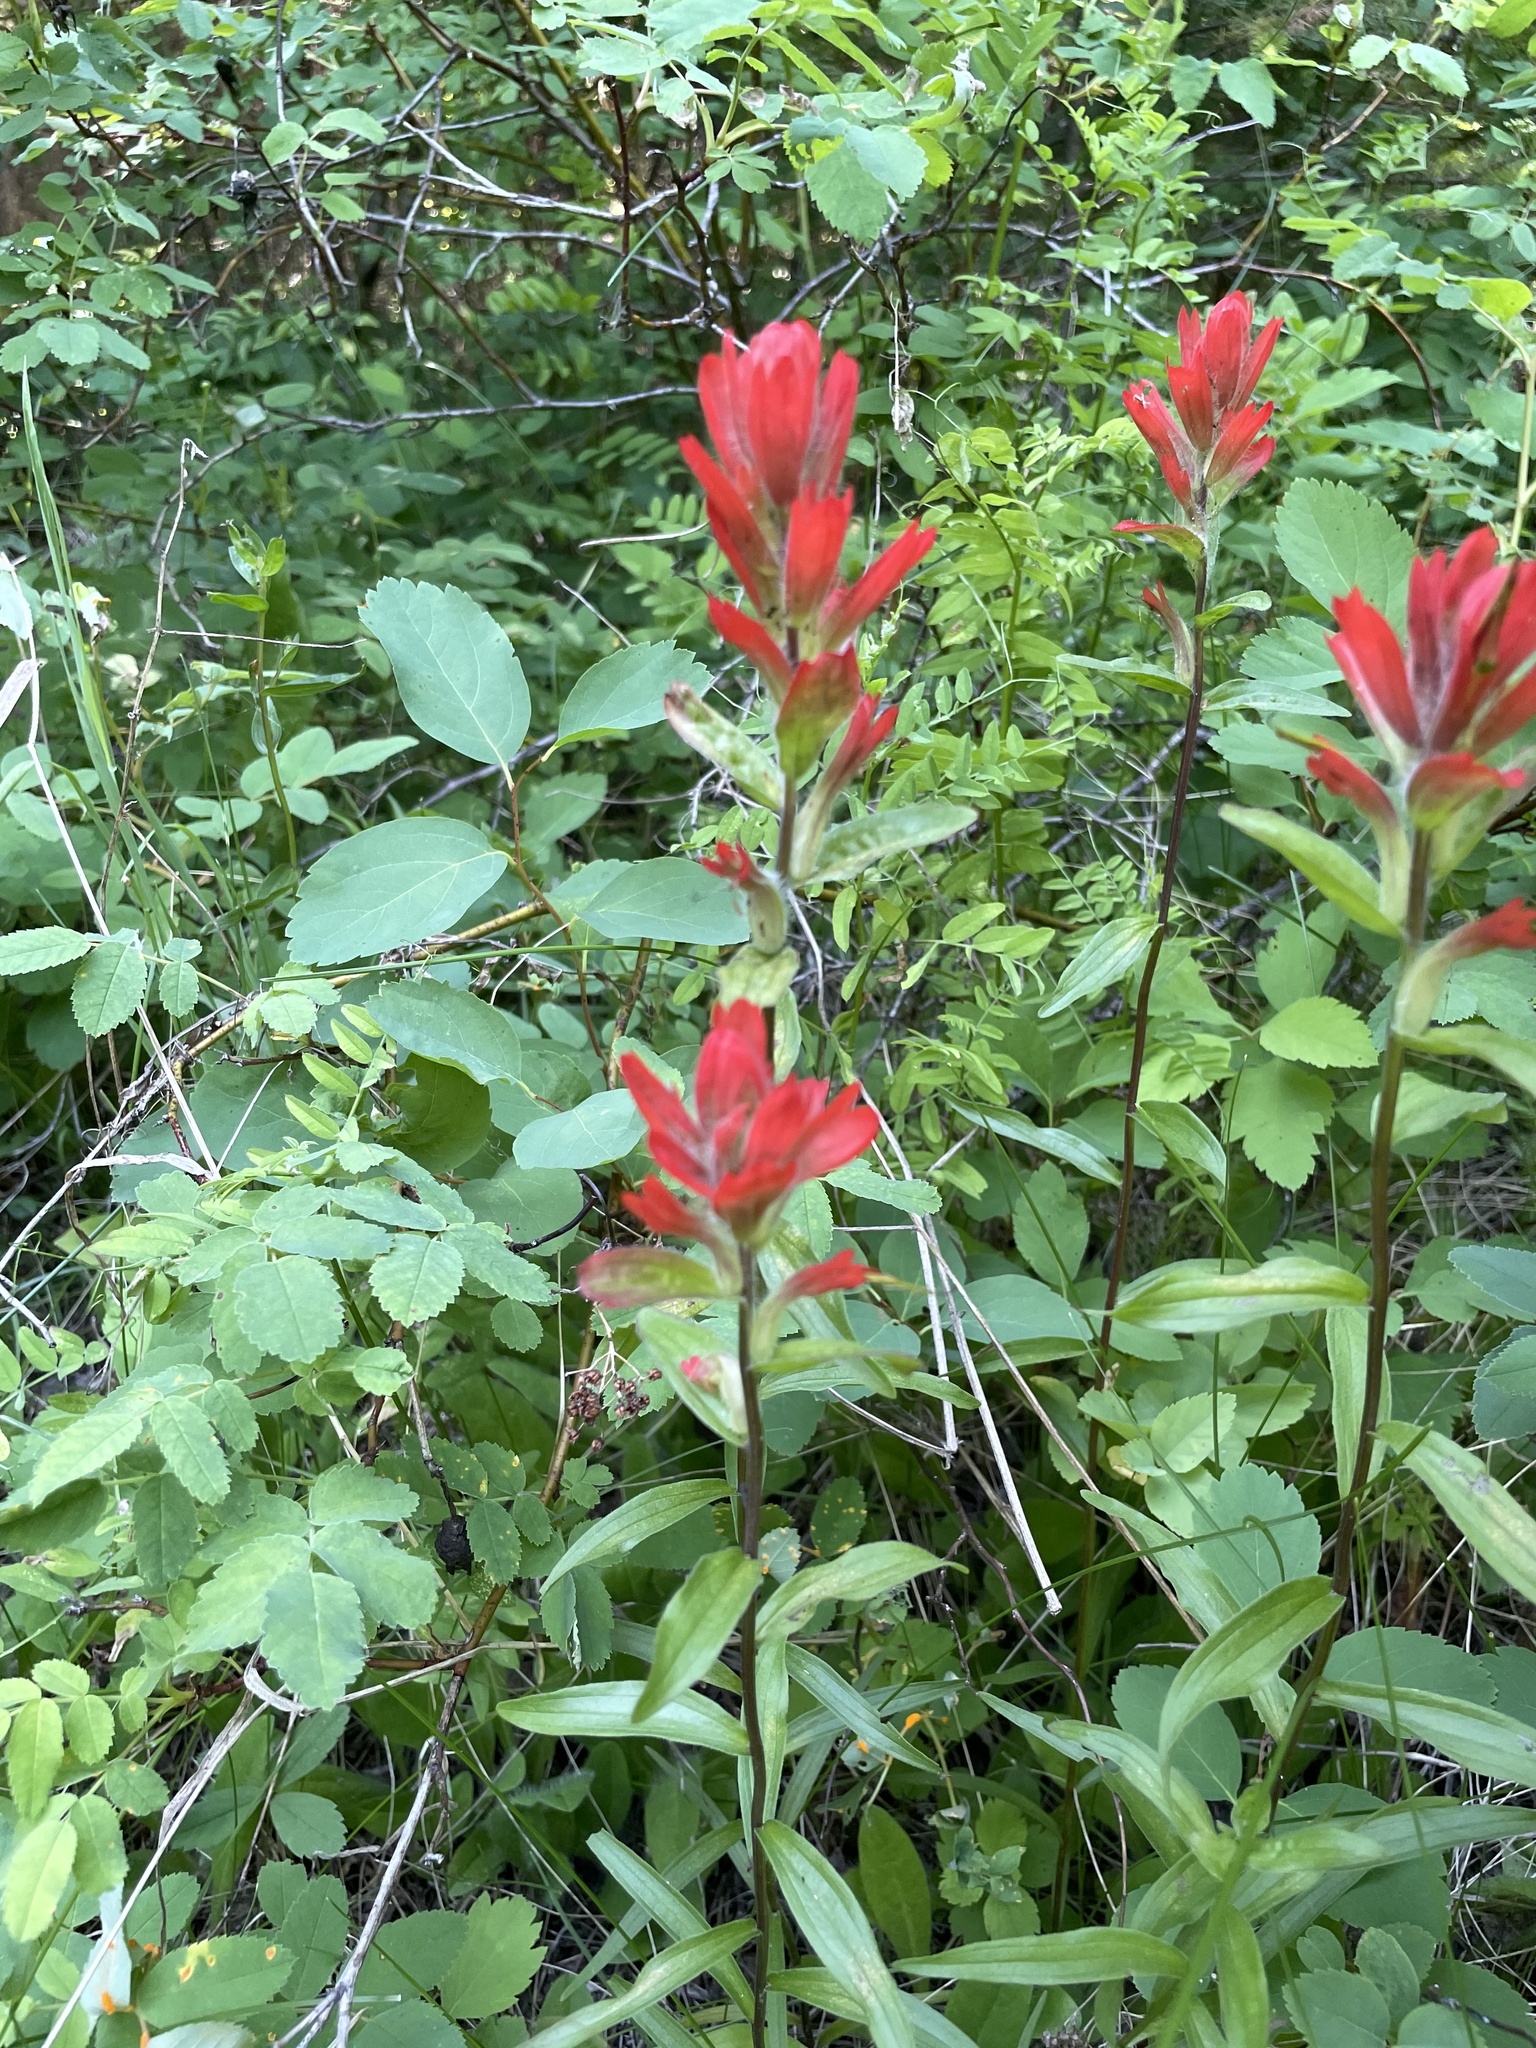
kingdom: Plantae
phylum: Tracheophyta
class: Magnoliopsida
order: Lamiales
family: Orobanchaceae
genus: Castilleja
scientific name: Castilleja miniata
